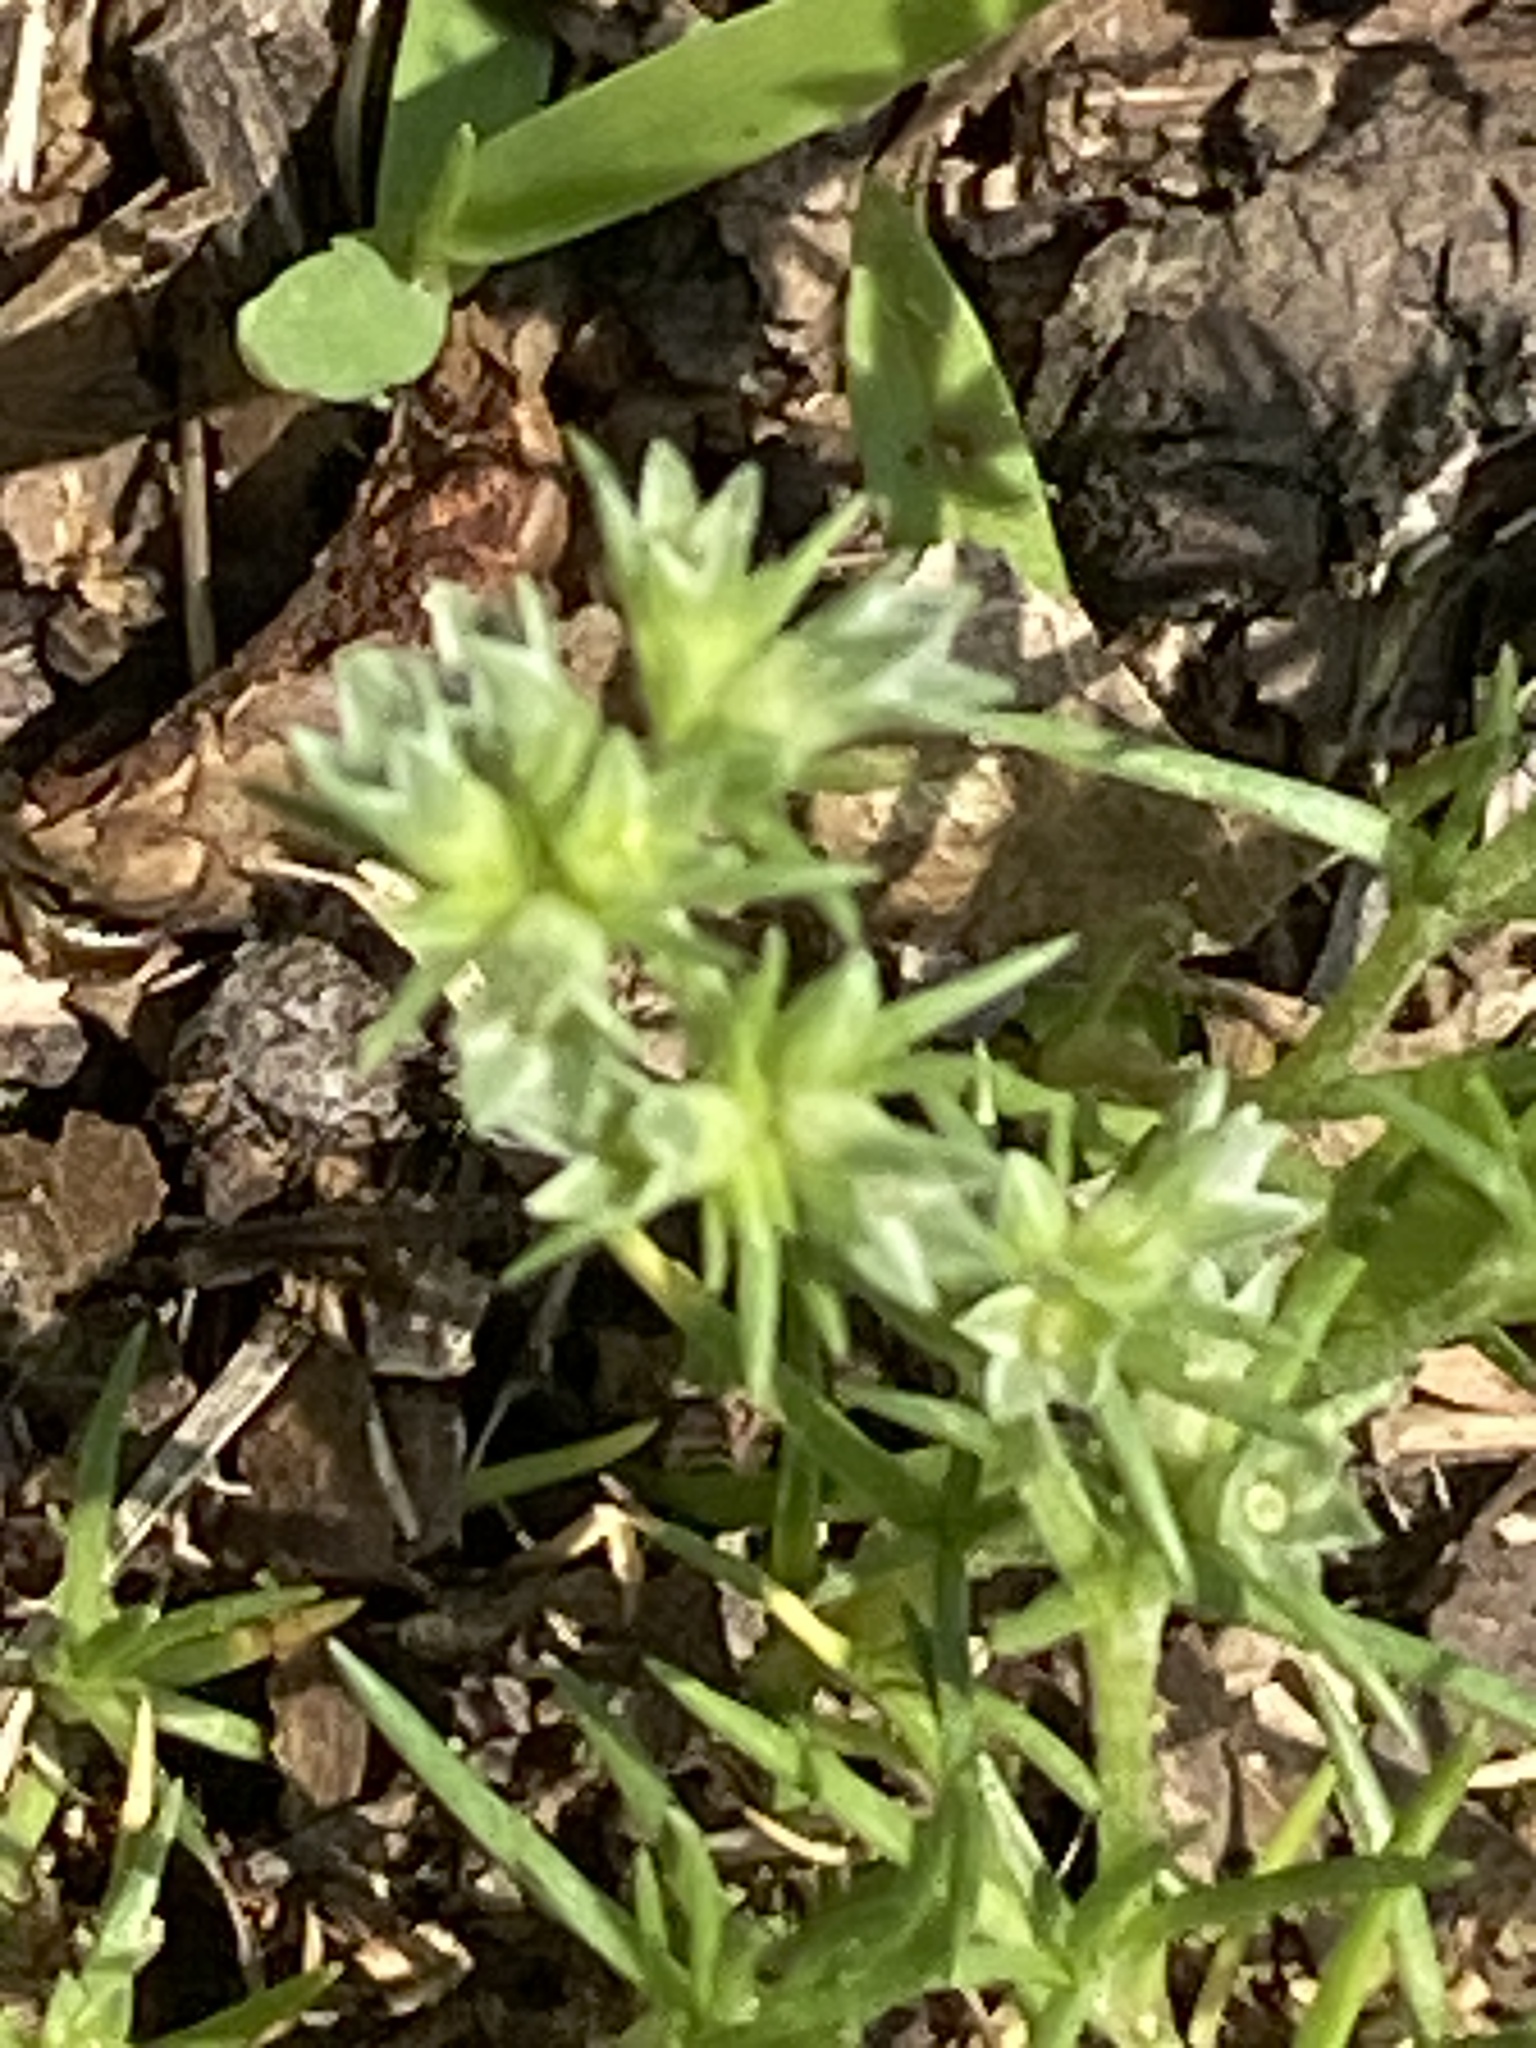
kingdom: Plantae
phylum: Tracheophyta
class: Magnoliopsida
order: Caryophyllales
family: Caryophyllaceae
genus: Scleranthus
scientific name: Scleranthus annuus
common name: Annual knawel
